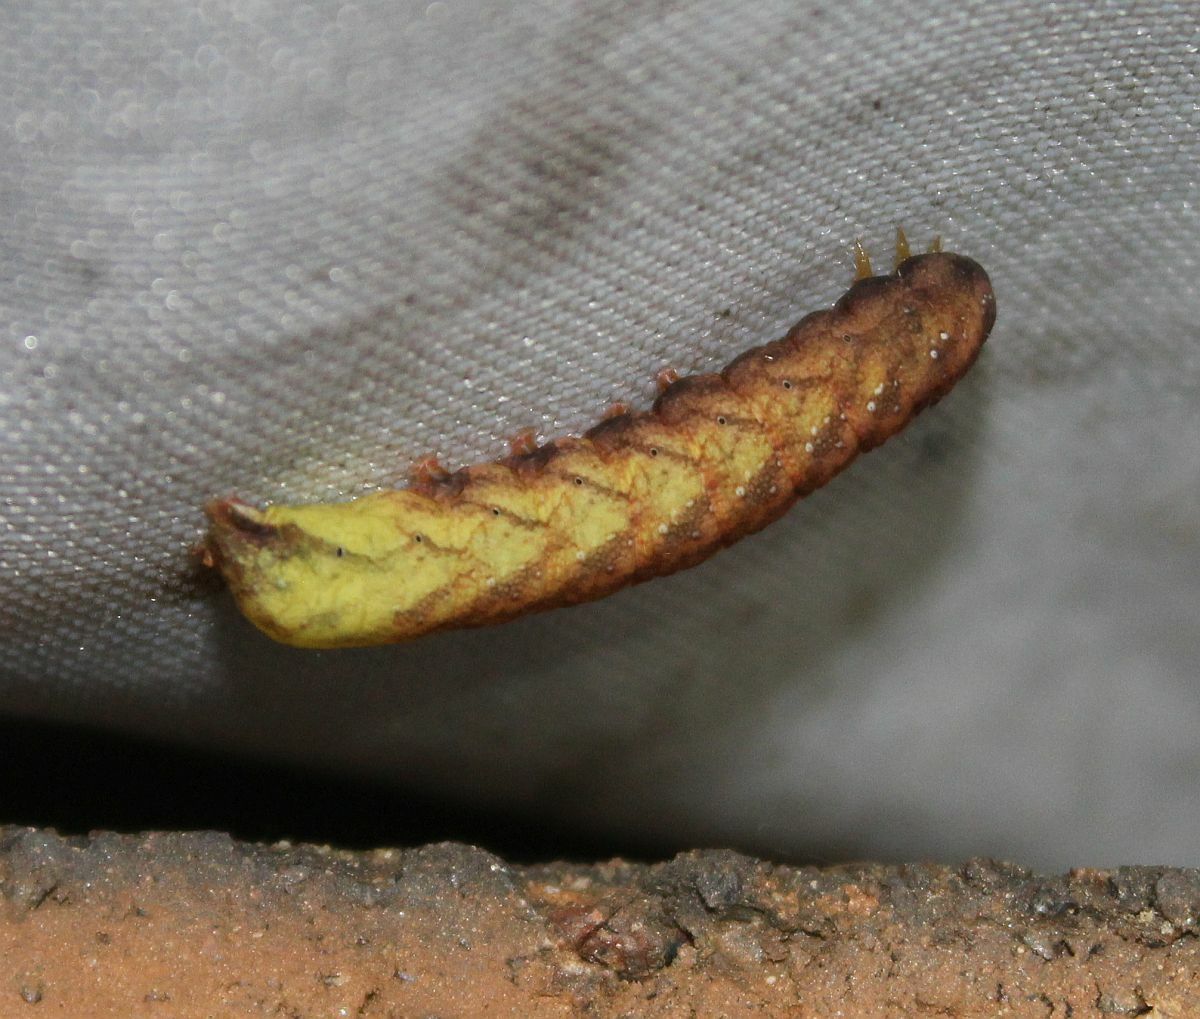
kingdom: Animalia
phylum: Arthropoda
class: Insecta
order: Lepidoptera
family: Noctuidae
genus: Sideridis
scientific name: Sideridis rivularis
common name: Campion
